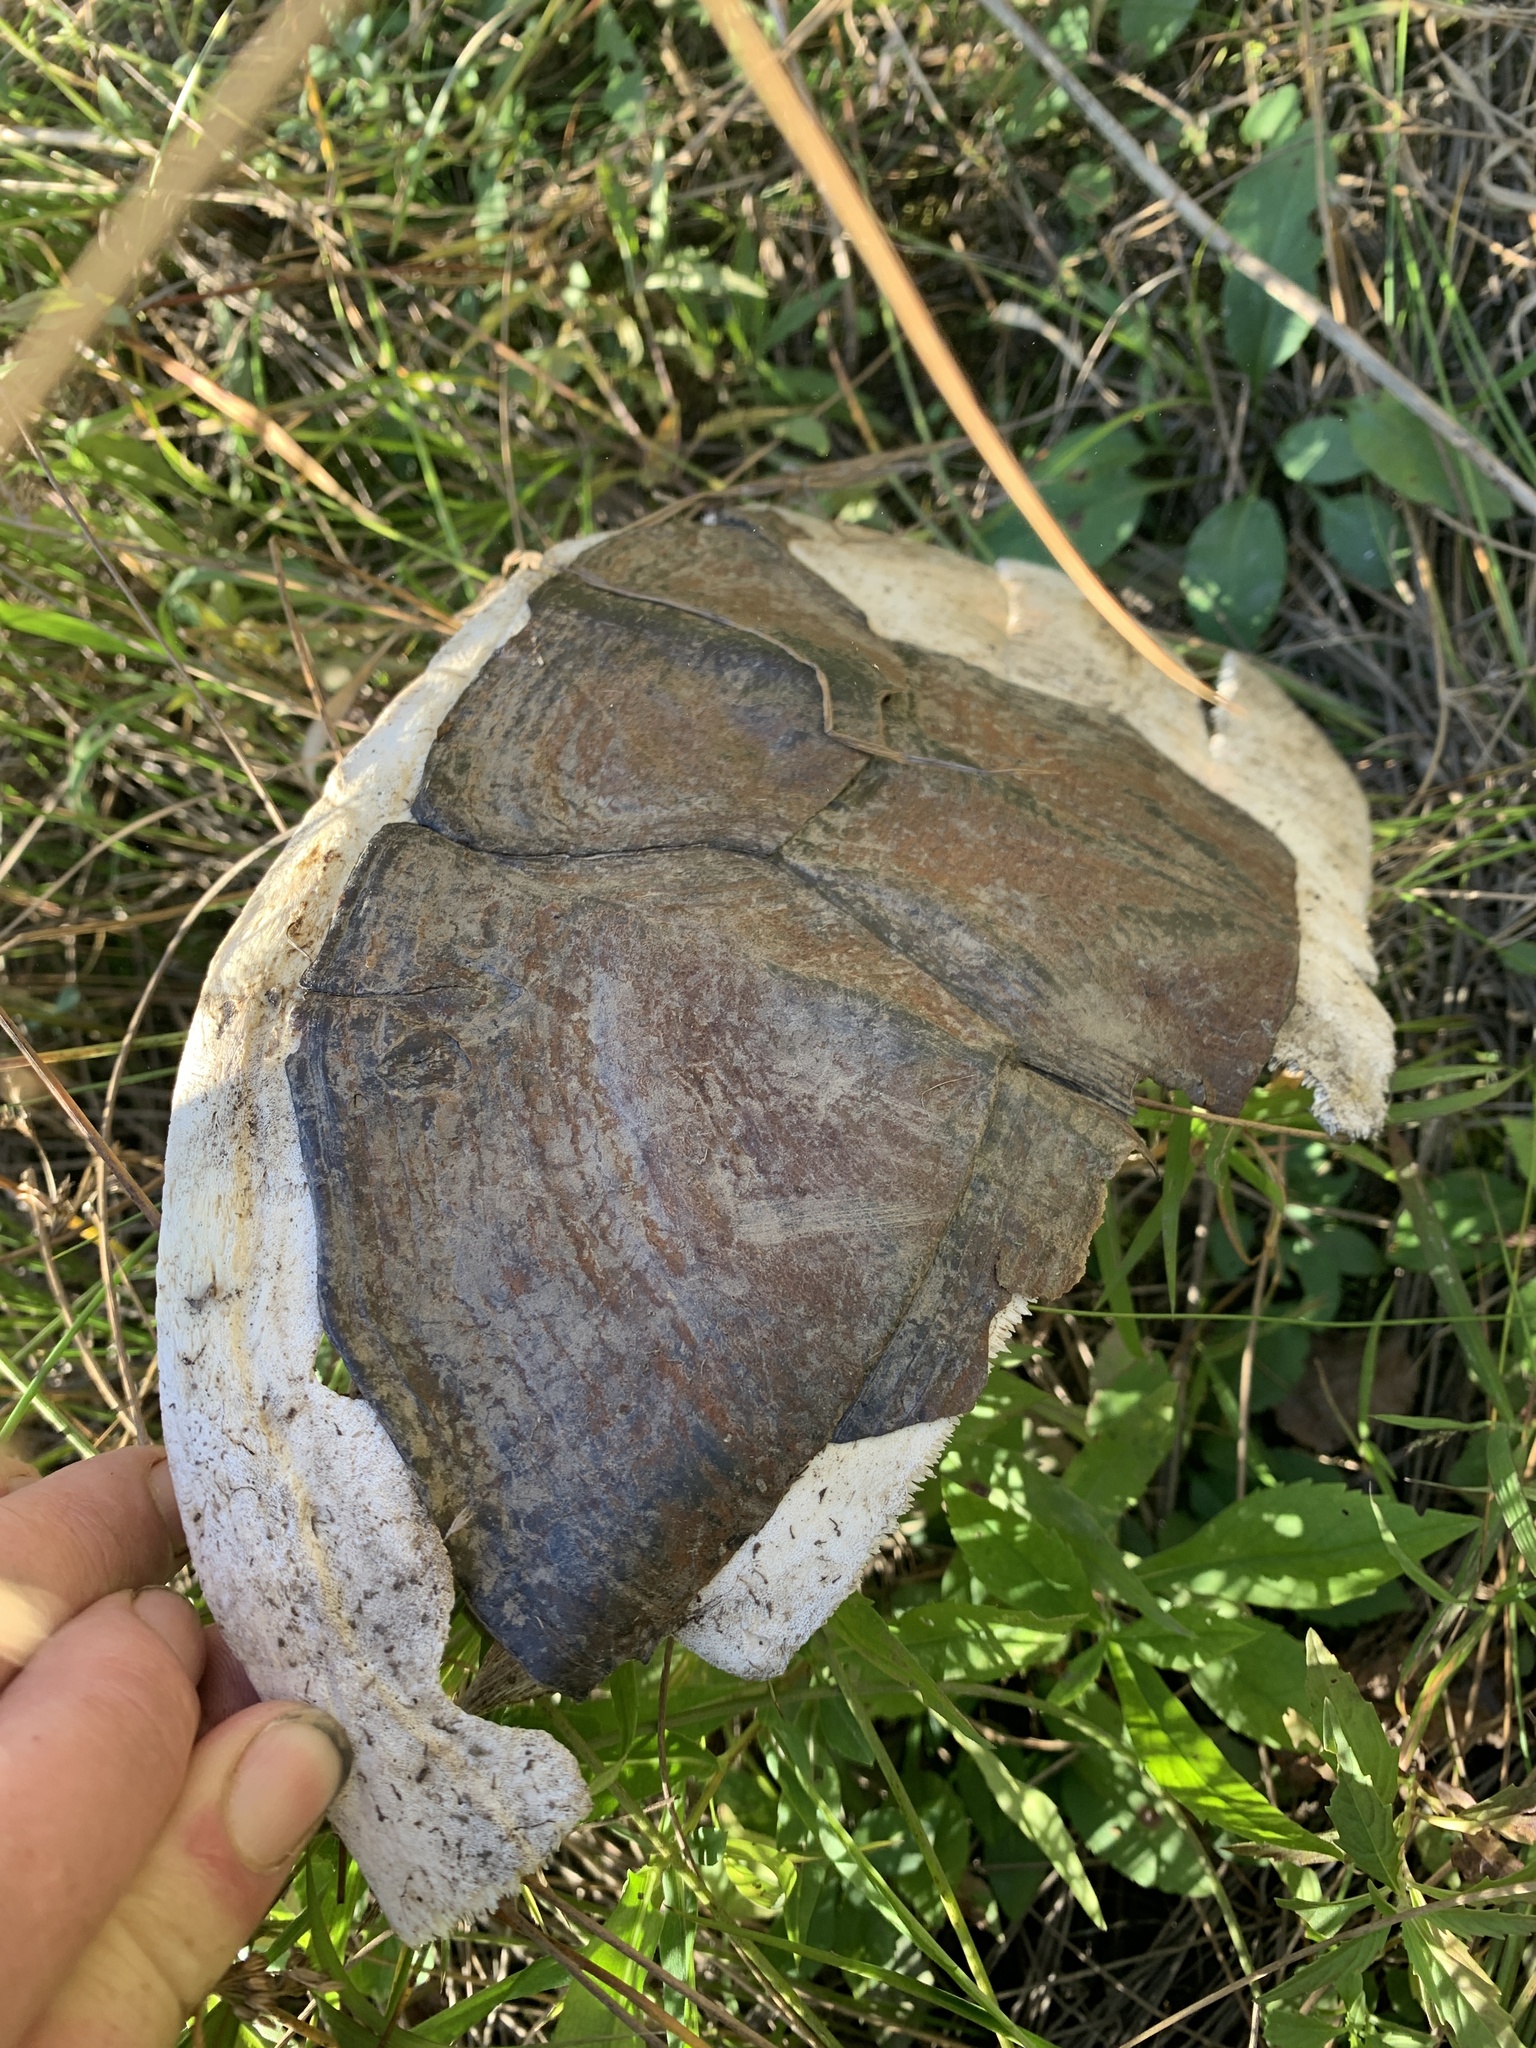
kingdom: Animalia
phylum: Chordata
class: Testudines
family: Chelydridae
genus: Chelydra
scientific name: Chelydra serpentina
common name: Common snapping turtle
